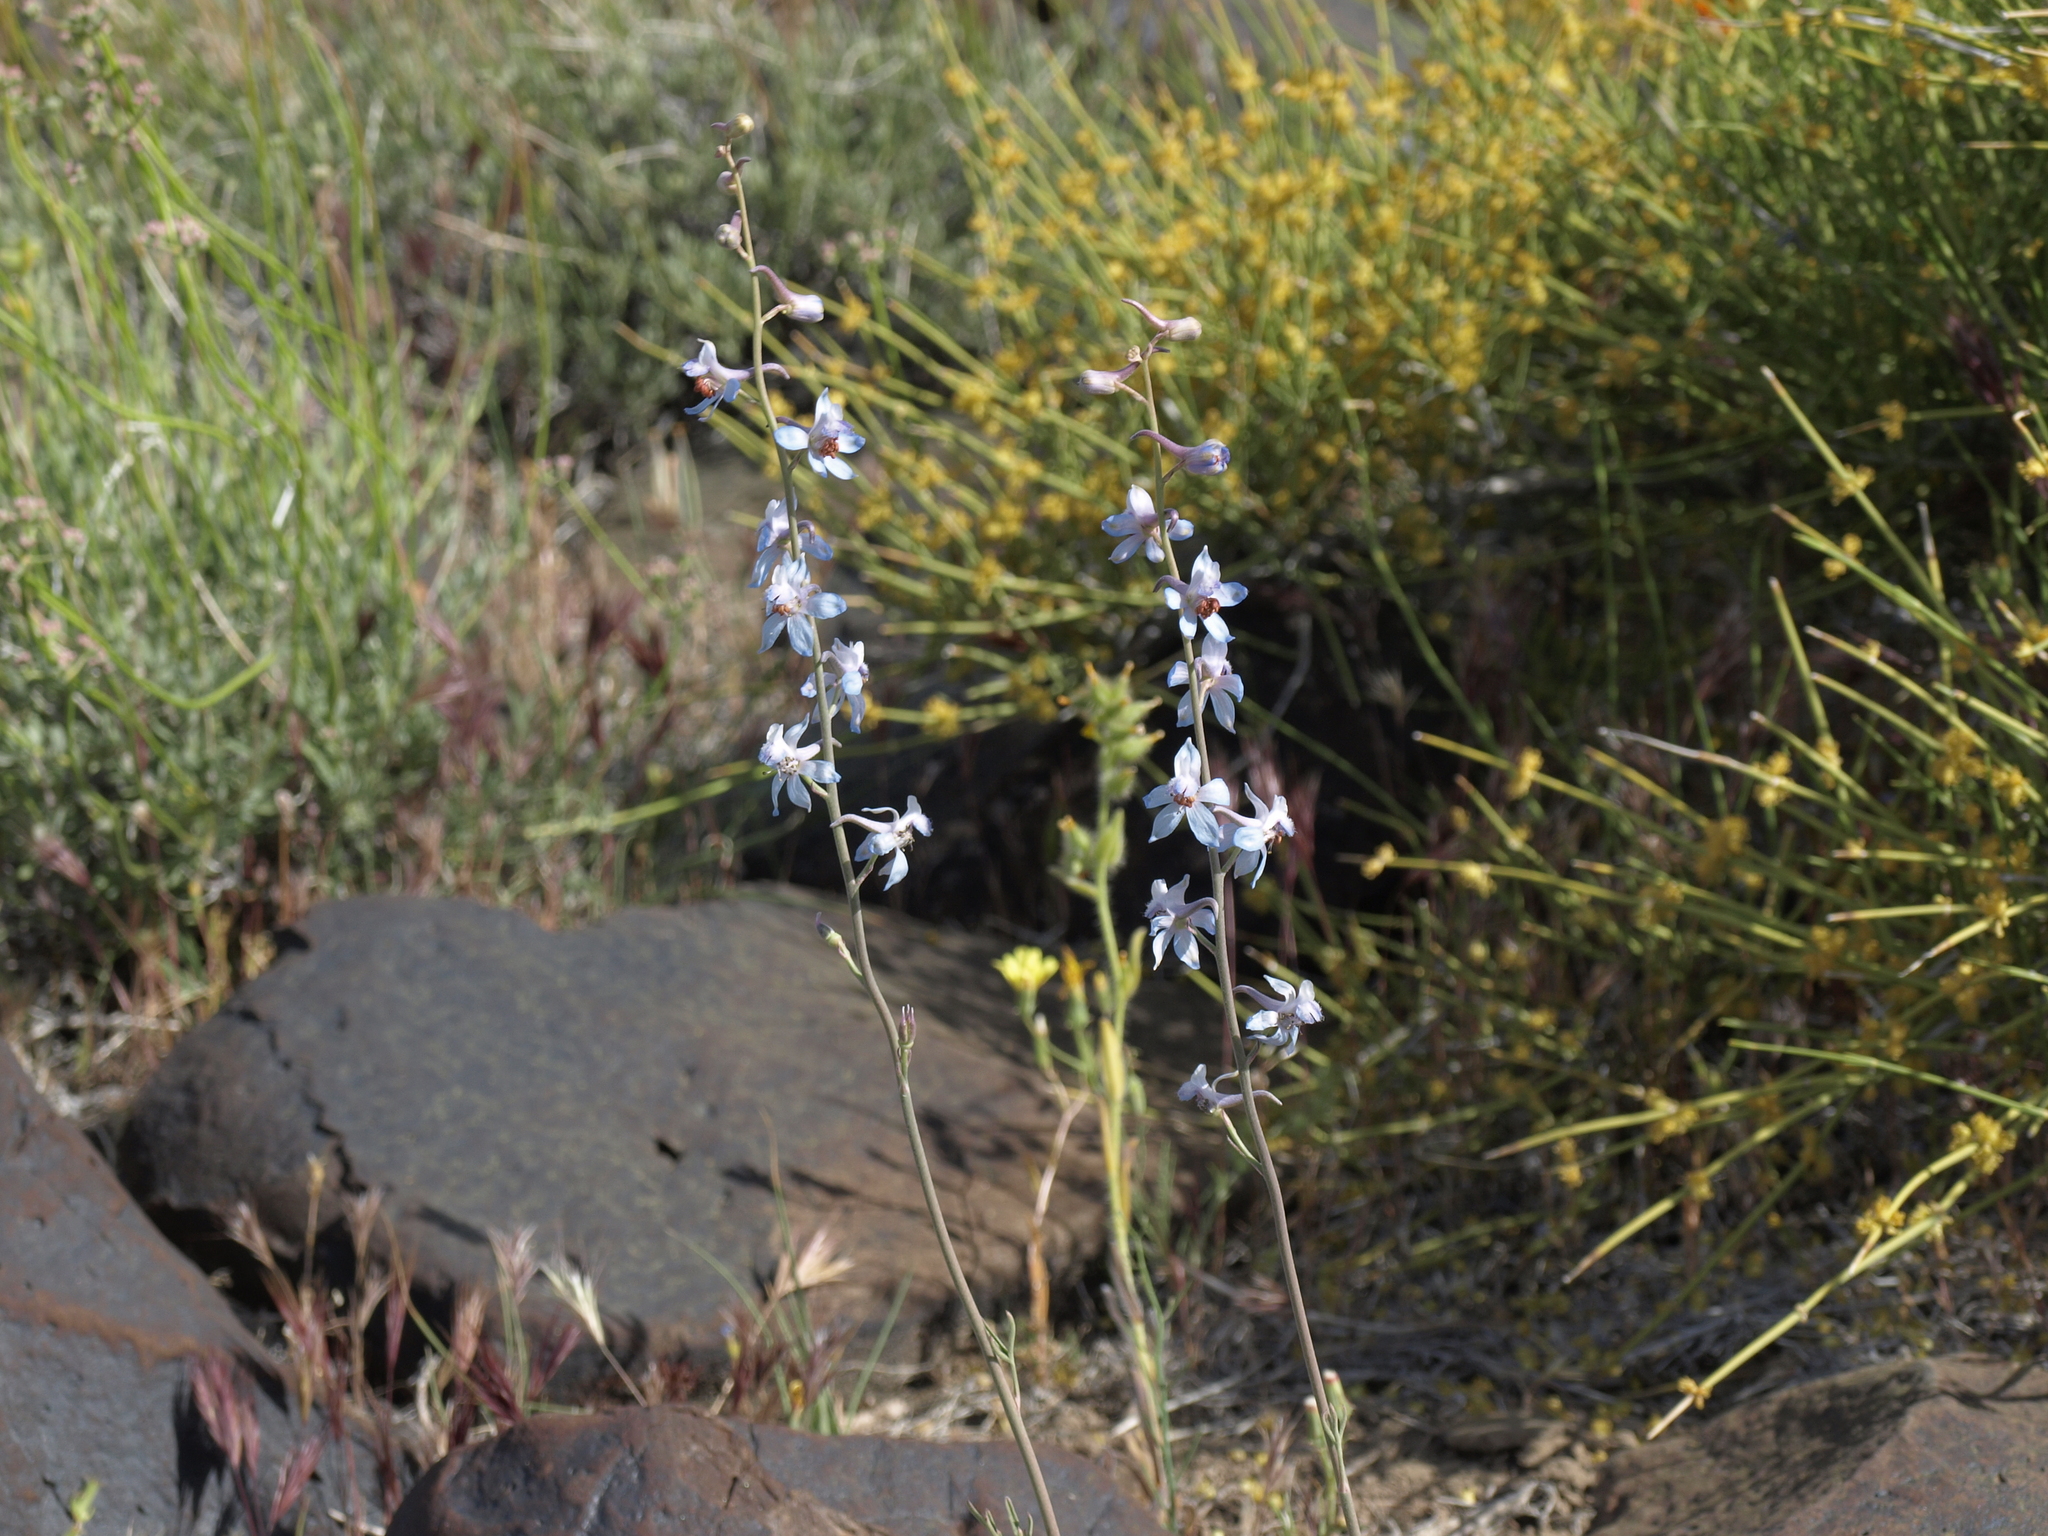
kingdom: Plantae
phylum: Tracheophyta
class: Magnoliopsida
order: Ranunculales
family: Ranunculaceae
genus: Delphinium
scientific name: Delphinium parishii
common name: Apache larkspur
